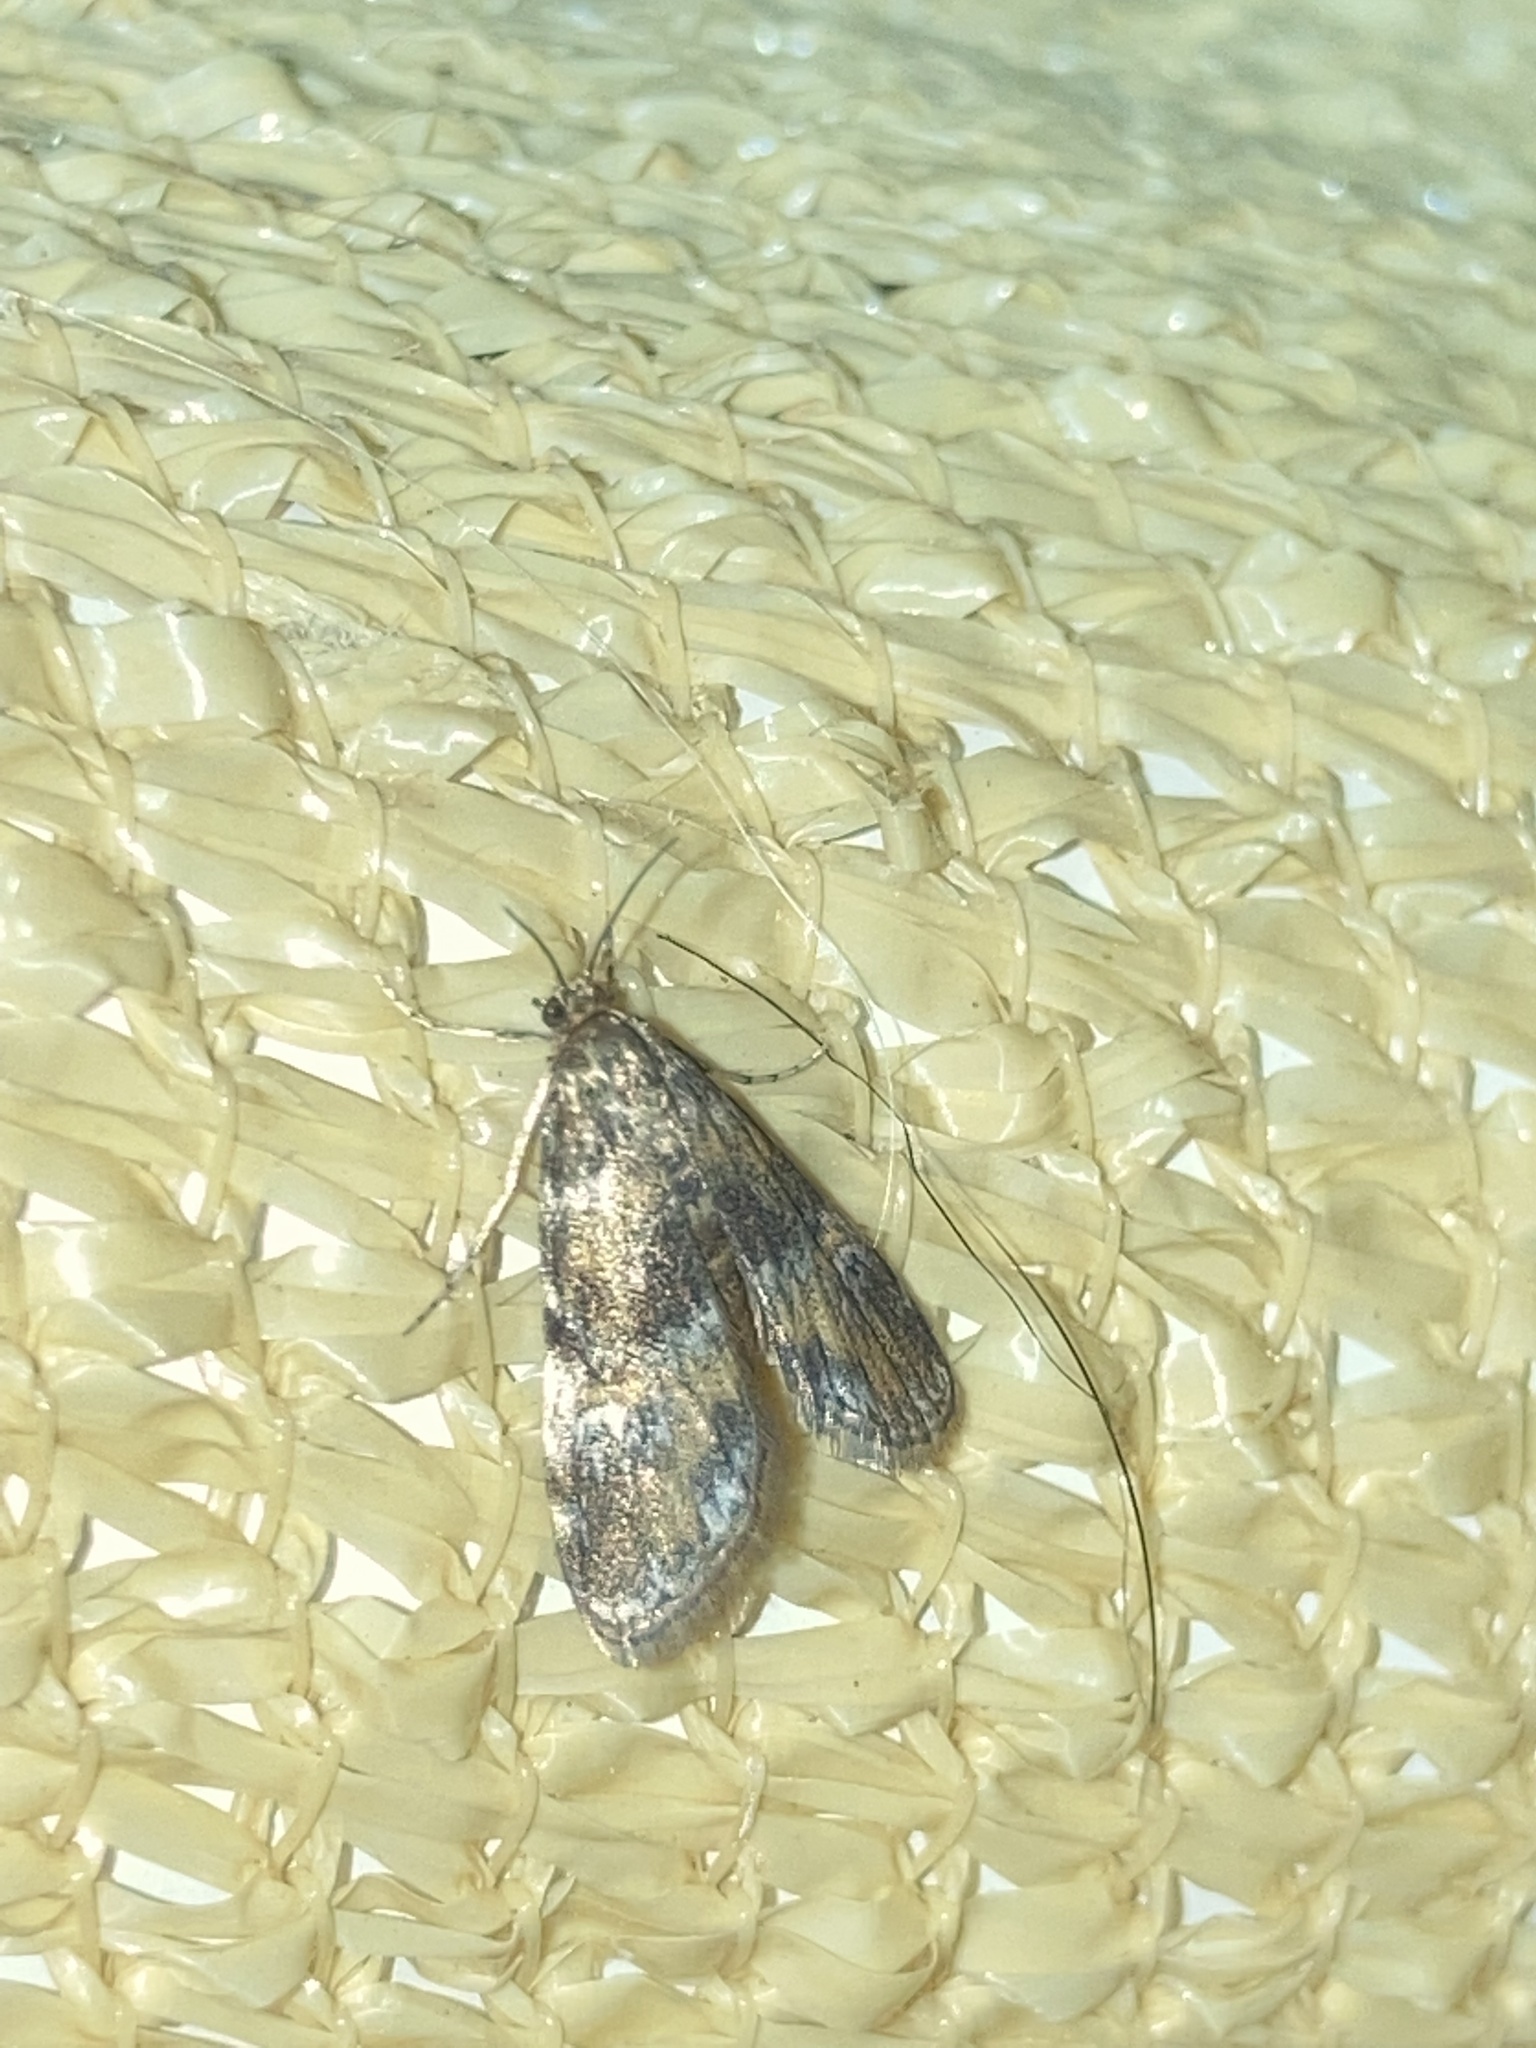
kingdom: Animalia
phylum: Arthropoda
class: Insecta
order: Lepidoptera
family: Crambidae
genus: Elophila
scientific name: Elophila obliteralis
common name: Waterlily leafcutter moth
